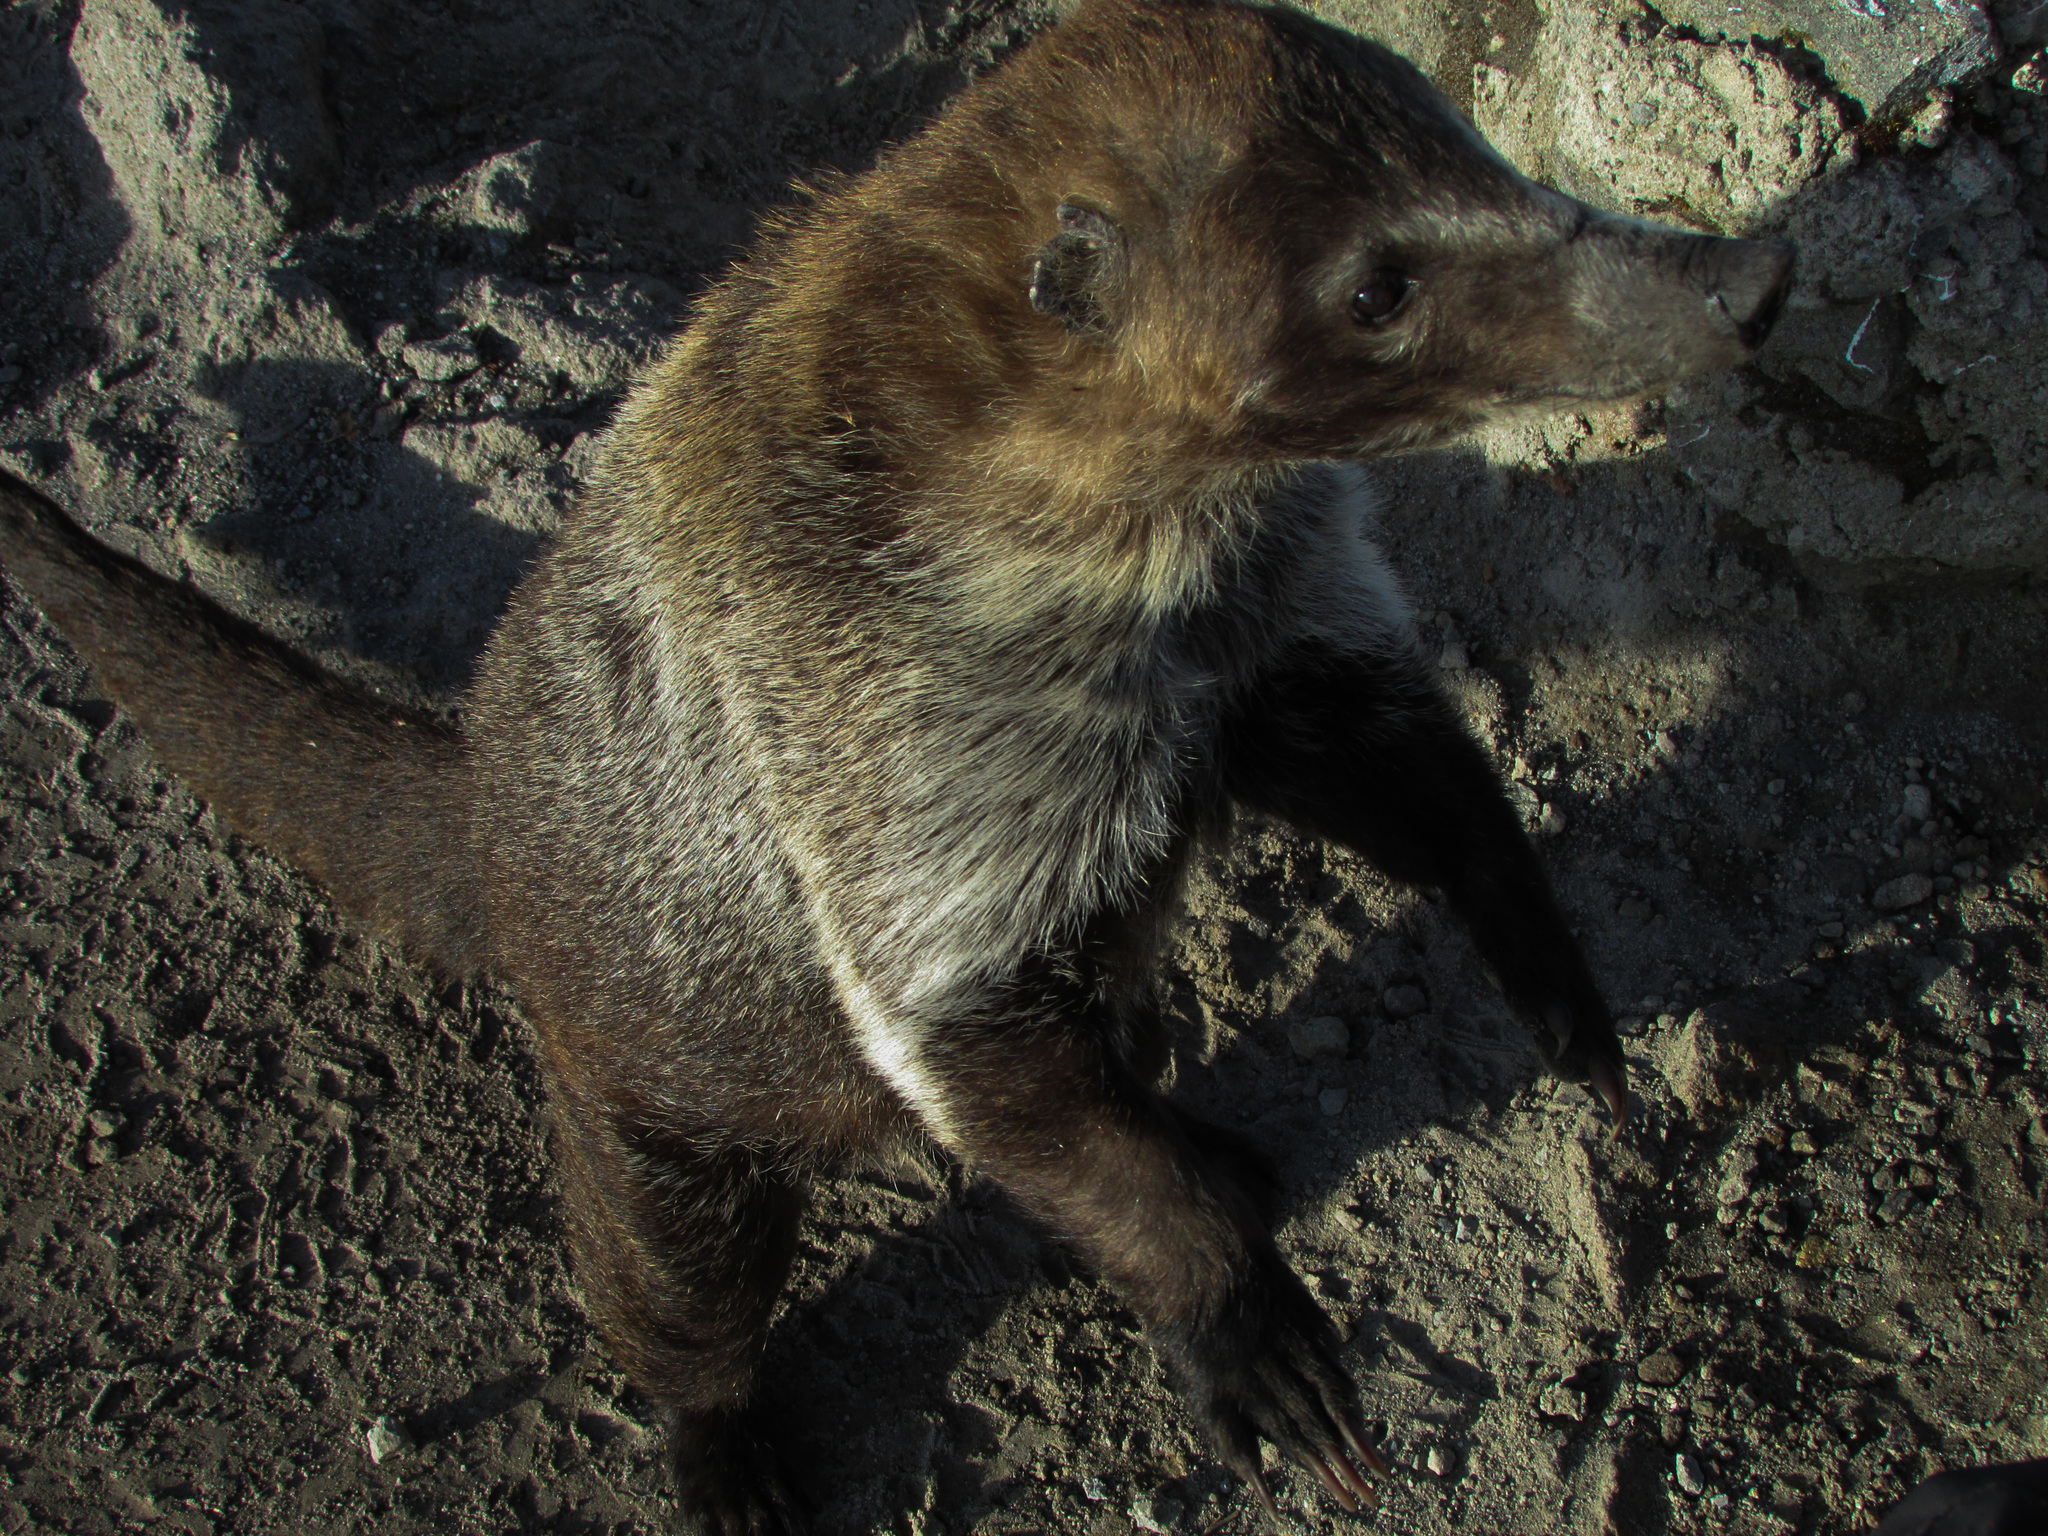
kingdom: Animalia
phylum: Chordata
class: Mammalia
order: Carnivora
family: Procyonidae
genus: Nasua
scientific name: Nasua narica
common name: White-nosed coati
